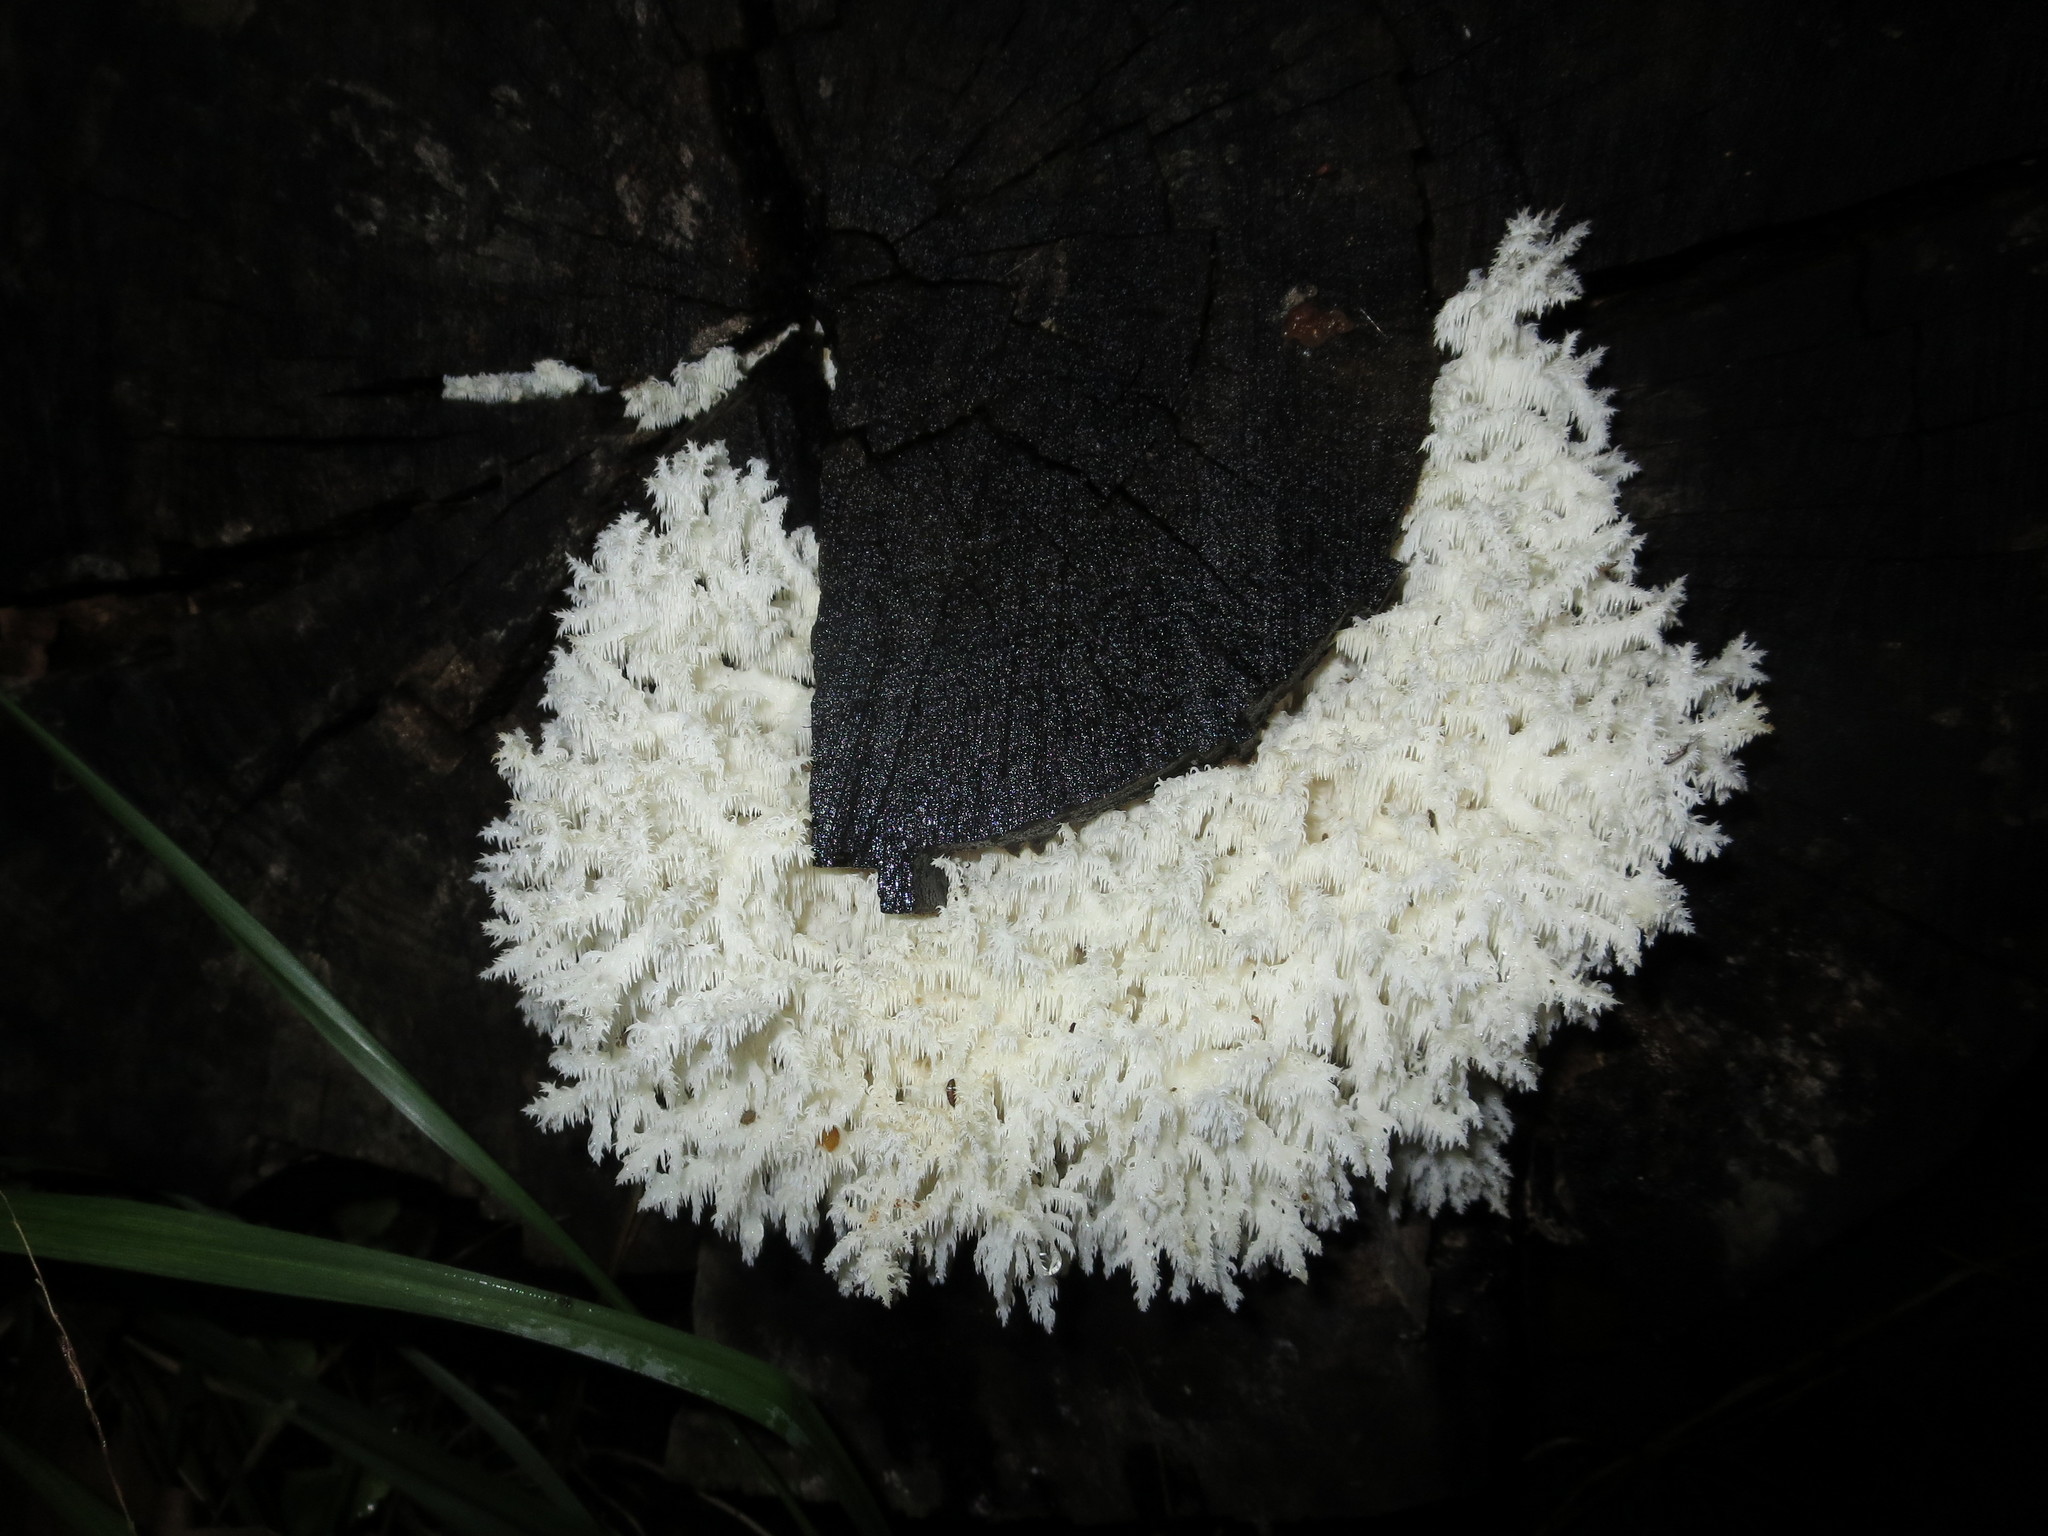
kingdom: Fungi
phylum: Basidiomycota
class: Agaricomycetes
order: Russulales
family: Hericiaceae
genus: Hericium
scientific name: Hericium coralloides
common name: Coral tooth
